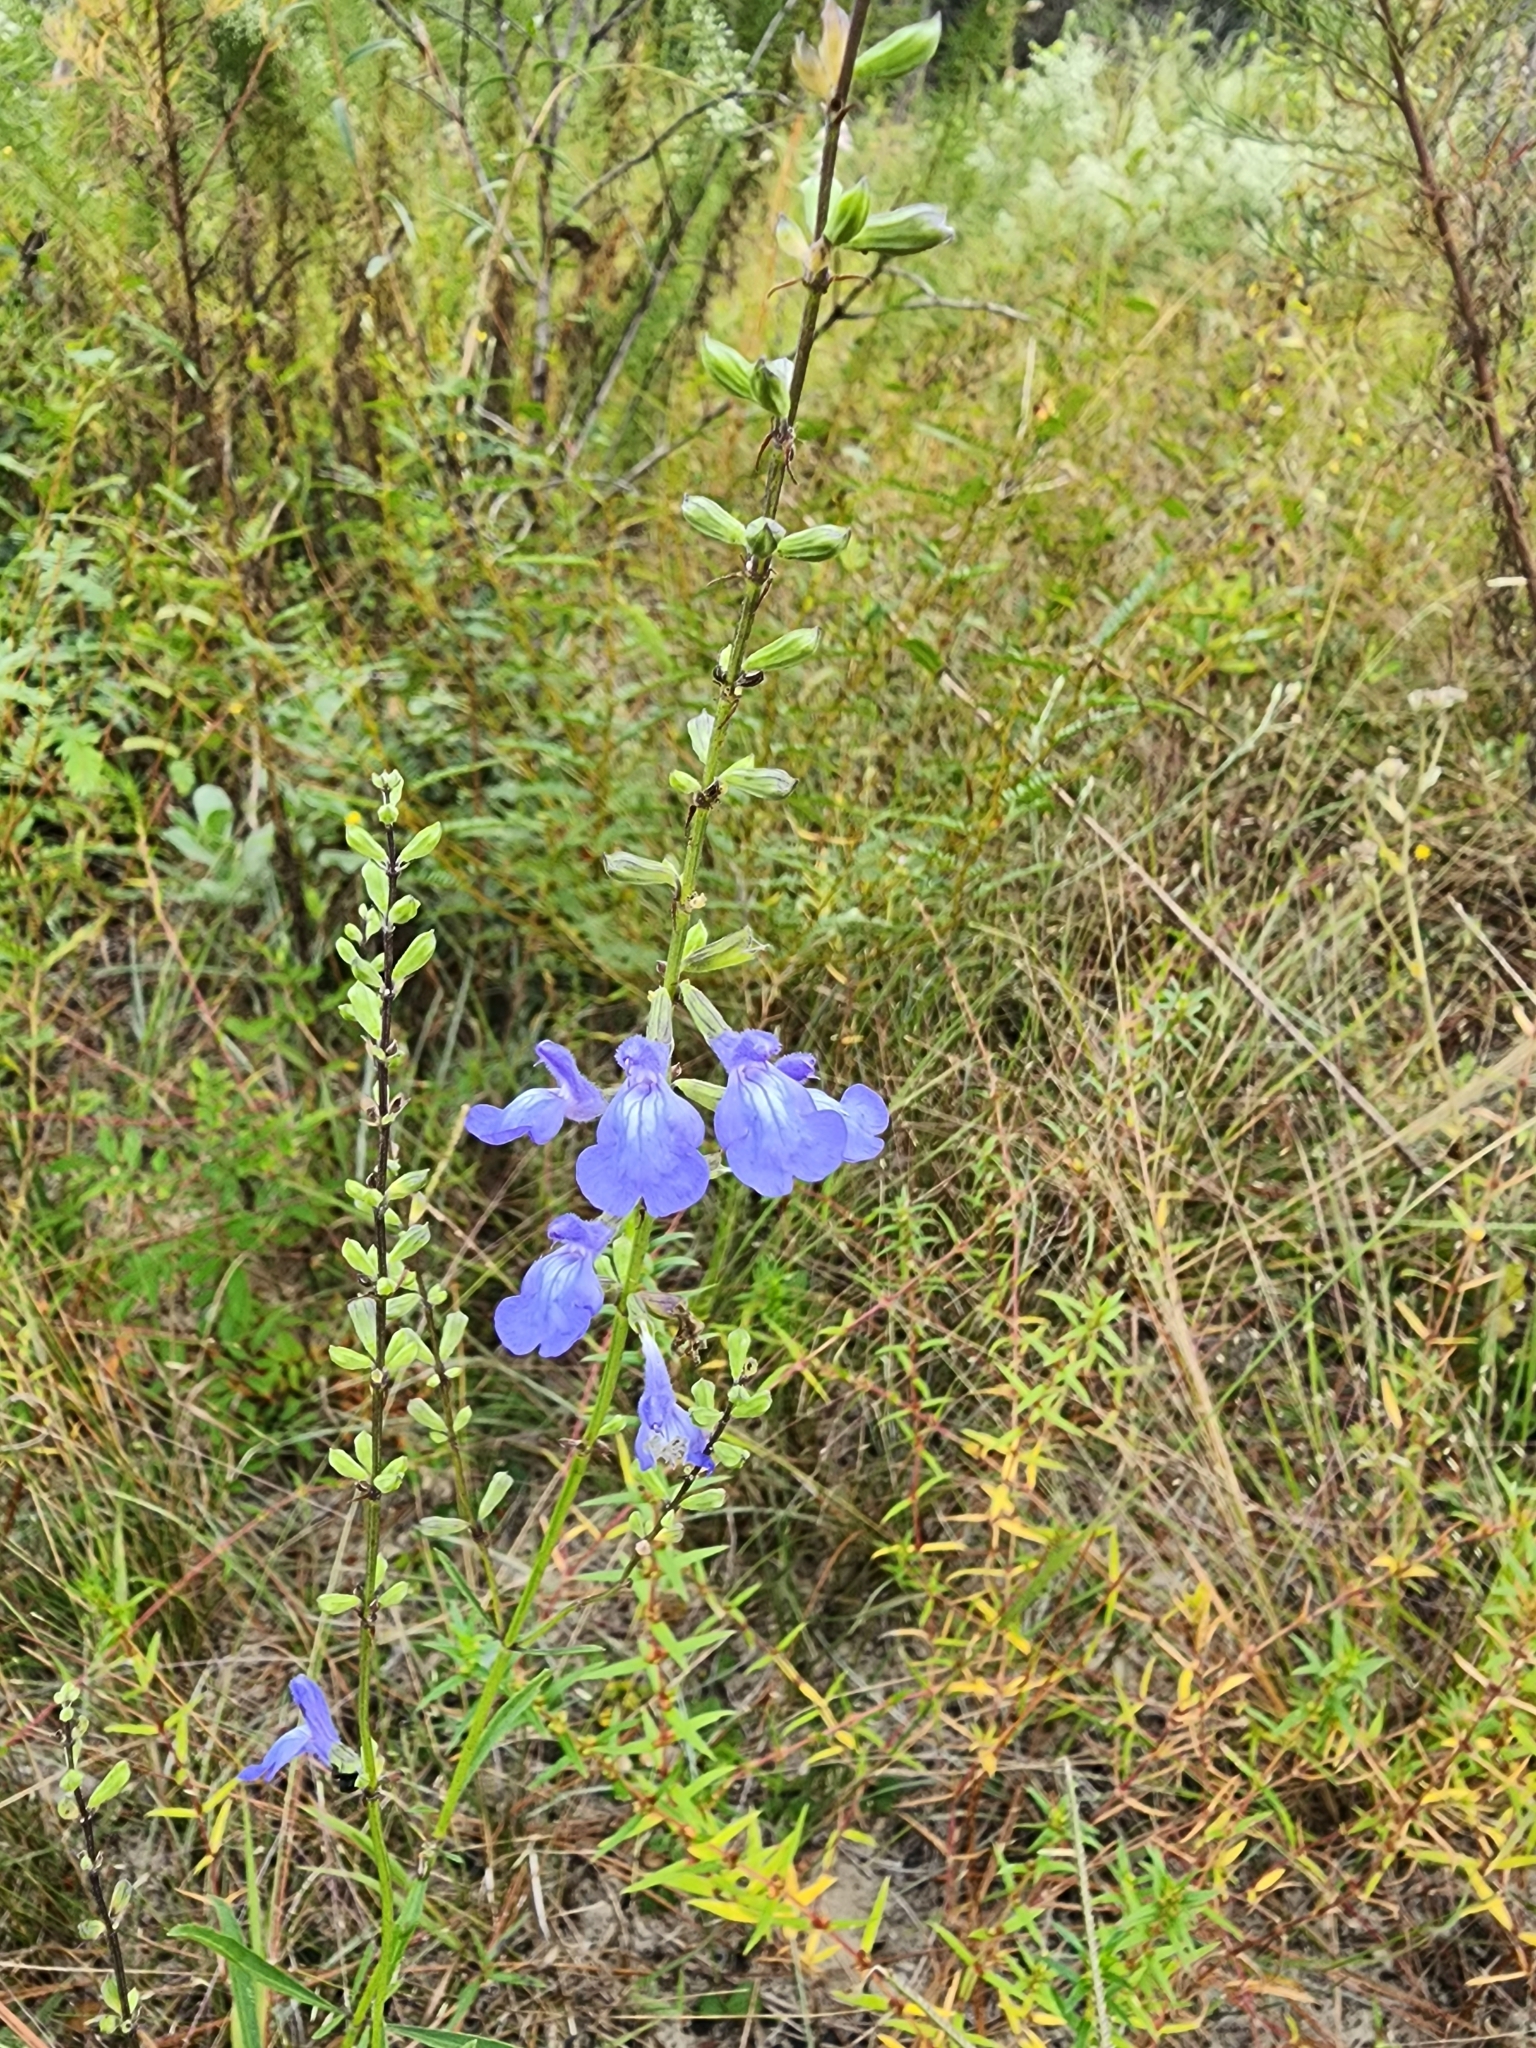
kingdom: Plantae
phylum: Tracheophyta
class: Magnoliopsida
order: Lamiales
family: Lamiaceae
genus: Salvia
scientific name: Salvia azurea
